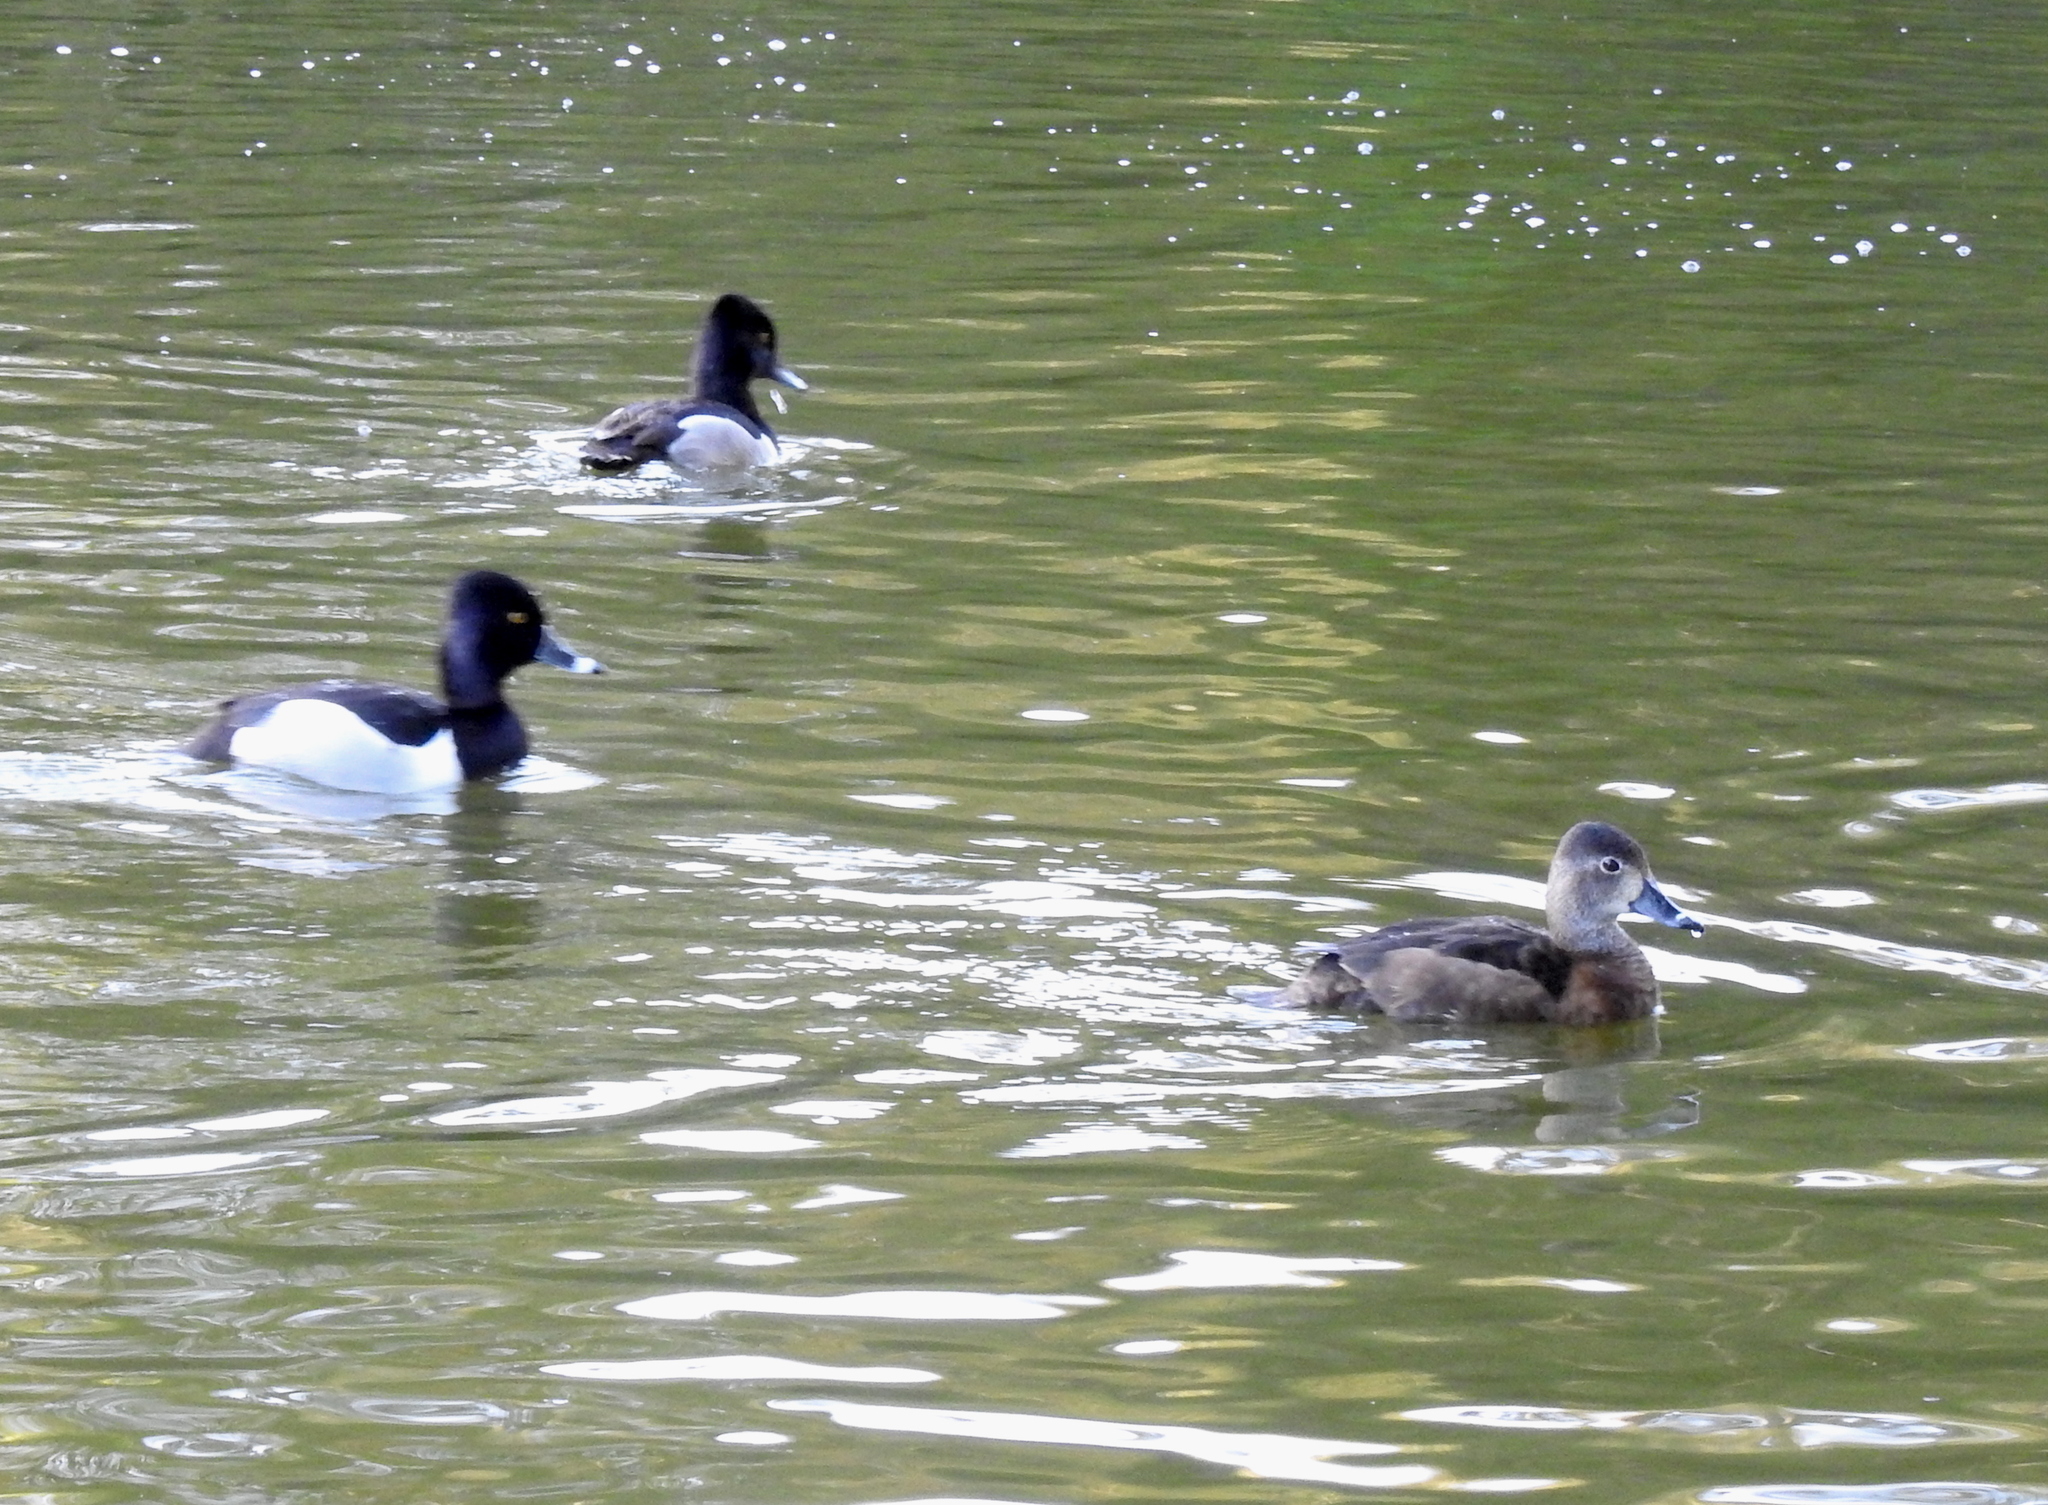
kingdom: Animalia
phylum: Chordata
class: Aves
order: Anseriformes
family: Anatidae
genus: Aythya
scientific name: Aythya collaris
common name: Ring-necked duck
